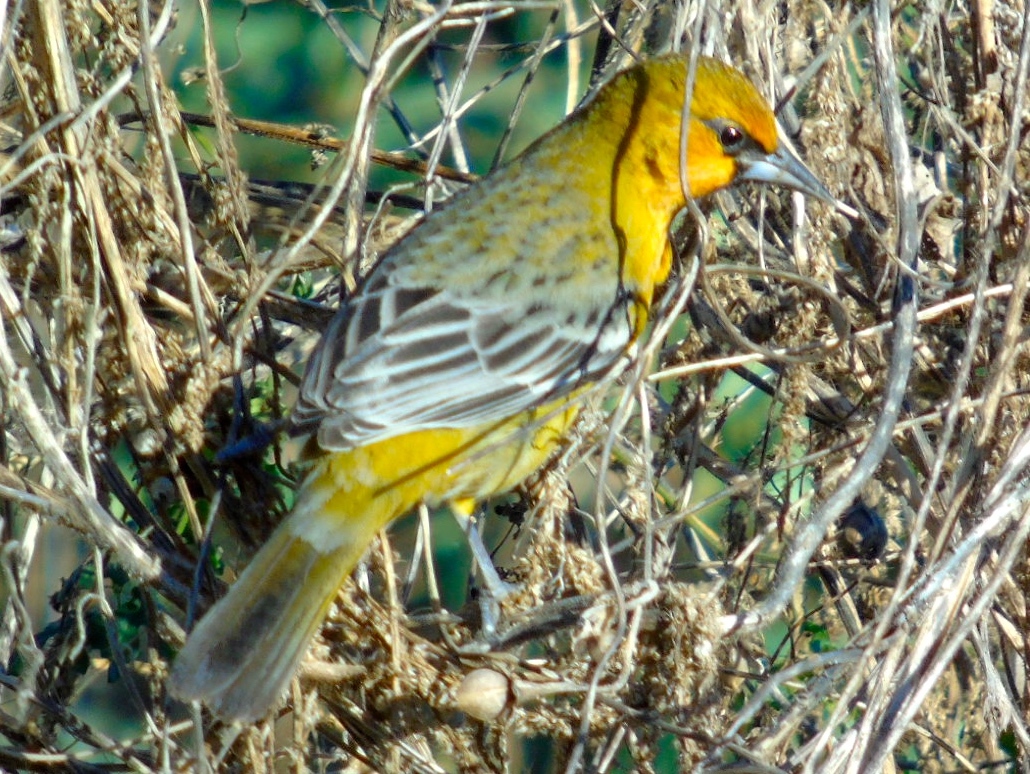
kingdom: Animalia
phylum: Chordata
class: Aves
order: Passeriformes
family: Icteridae
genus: Icterus
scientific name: Icterus pustulatus
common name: Streak-backed oriole
